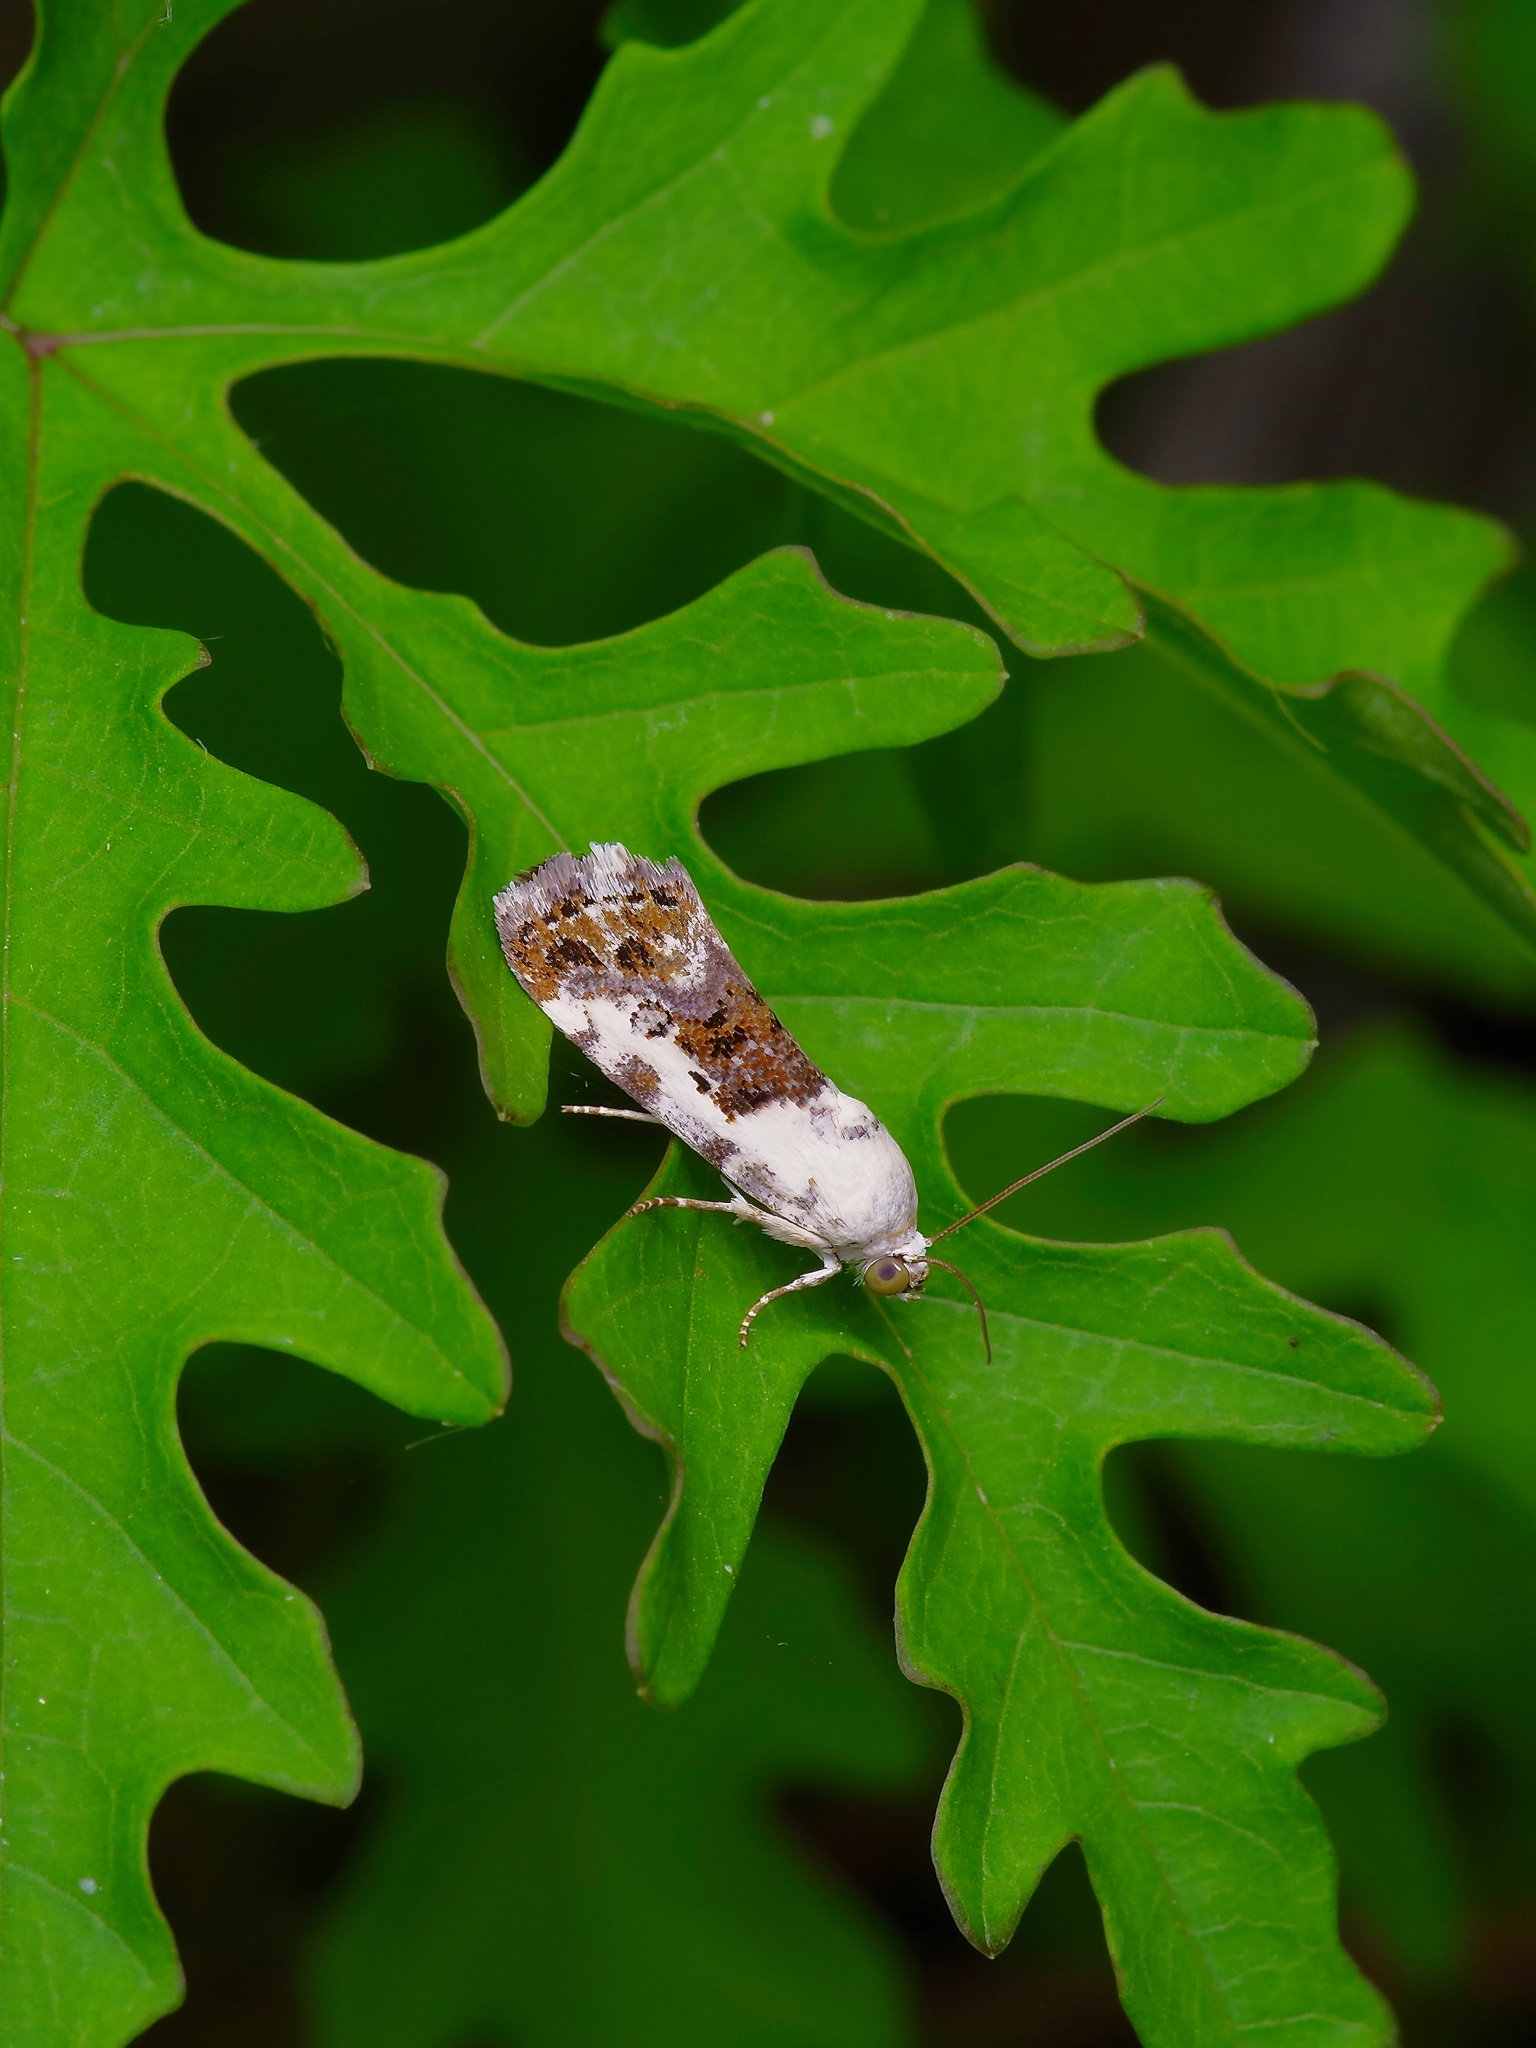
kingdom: Animalia
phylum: Arthropoda
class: Insecta
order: Lepidoptera
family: Noctuidae
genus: Acontia
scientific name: Acontia phecolisca
